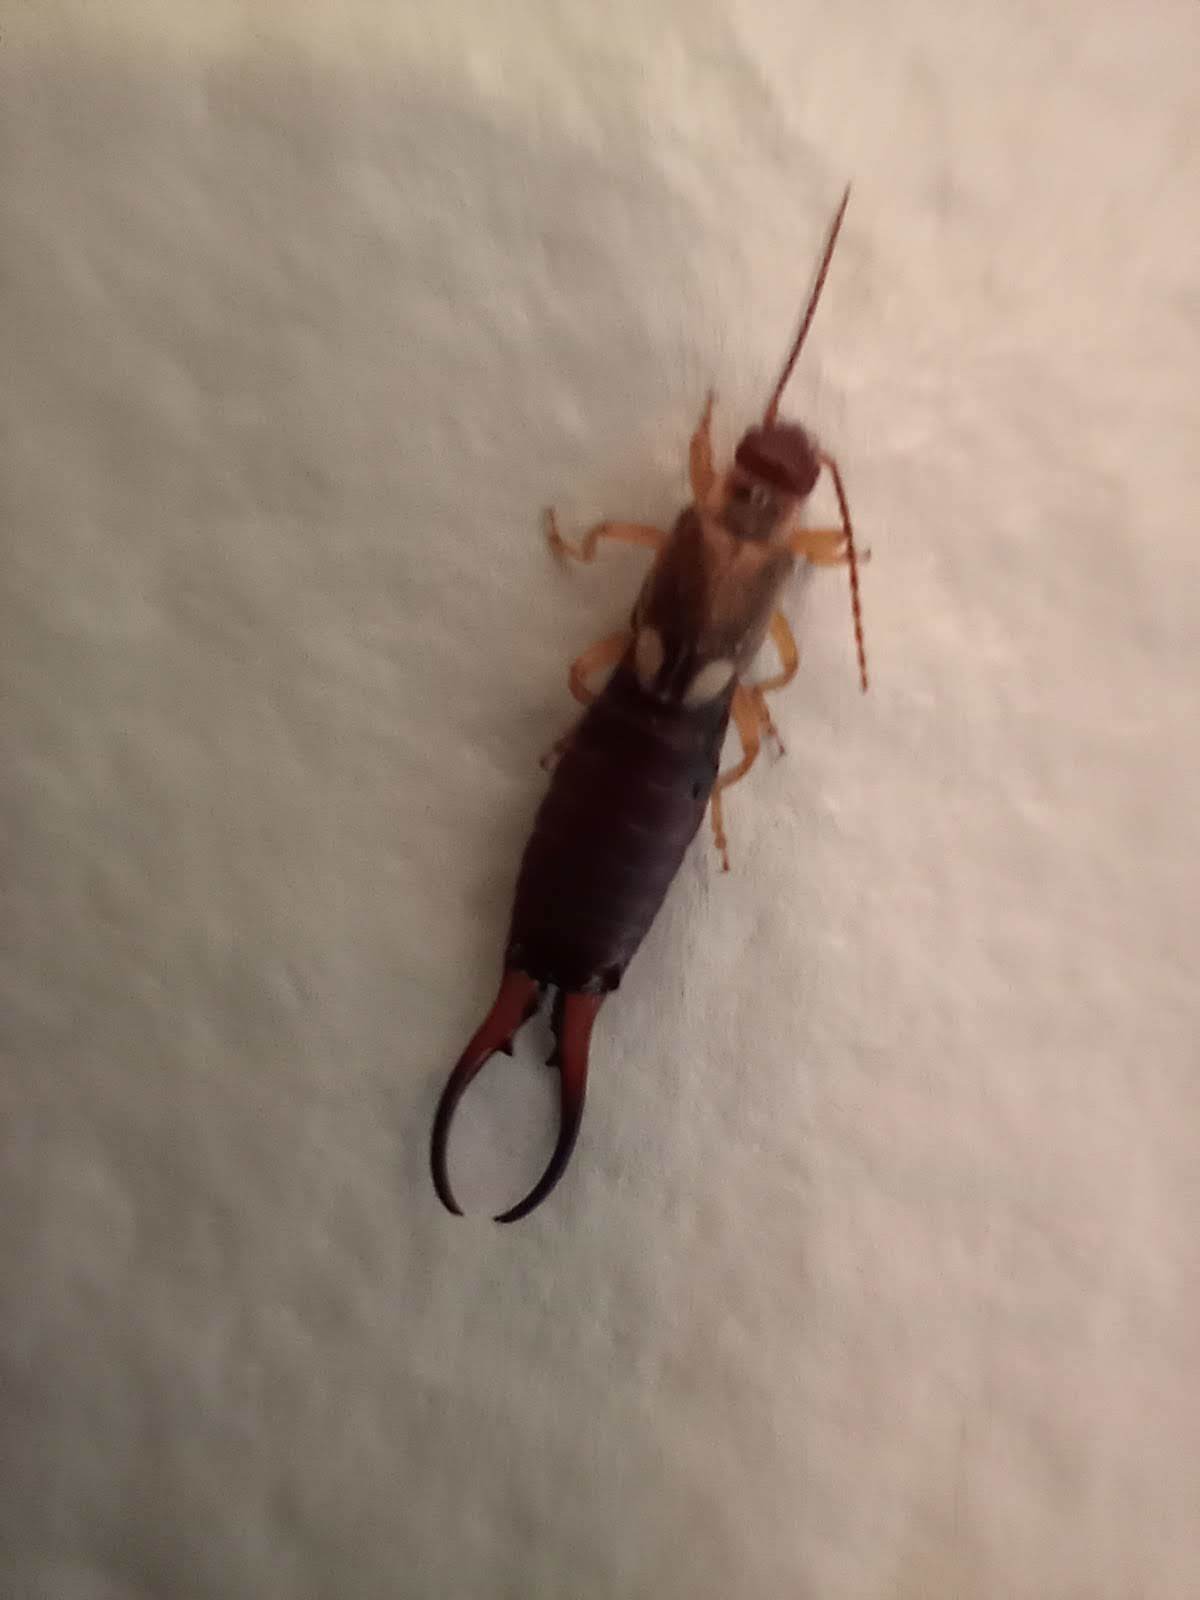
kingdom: Animalia
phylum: Arthropoda
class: Insecta
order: Dermaptera
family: Forficulidae
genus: Forficula
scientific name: Forficula
